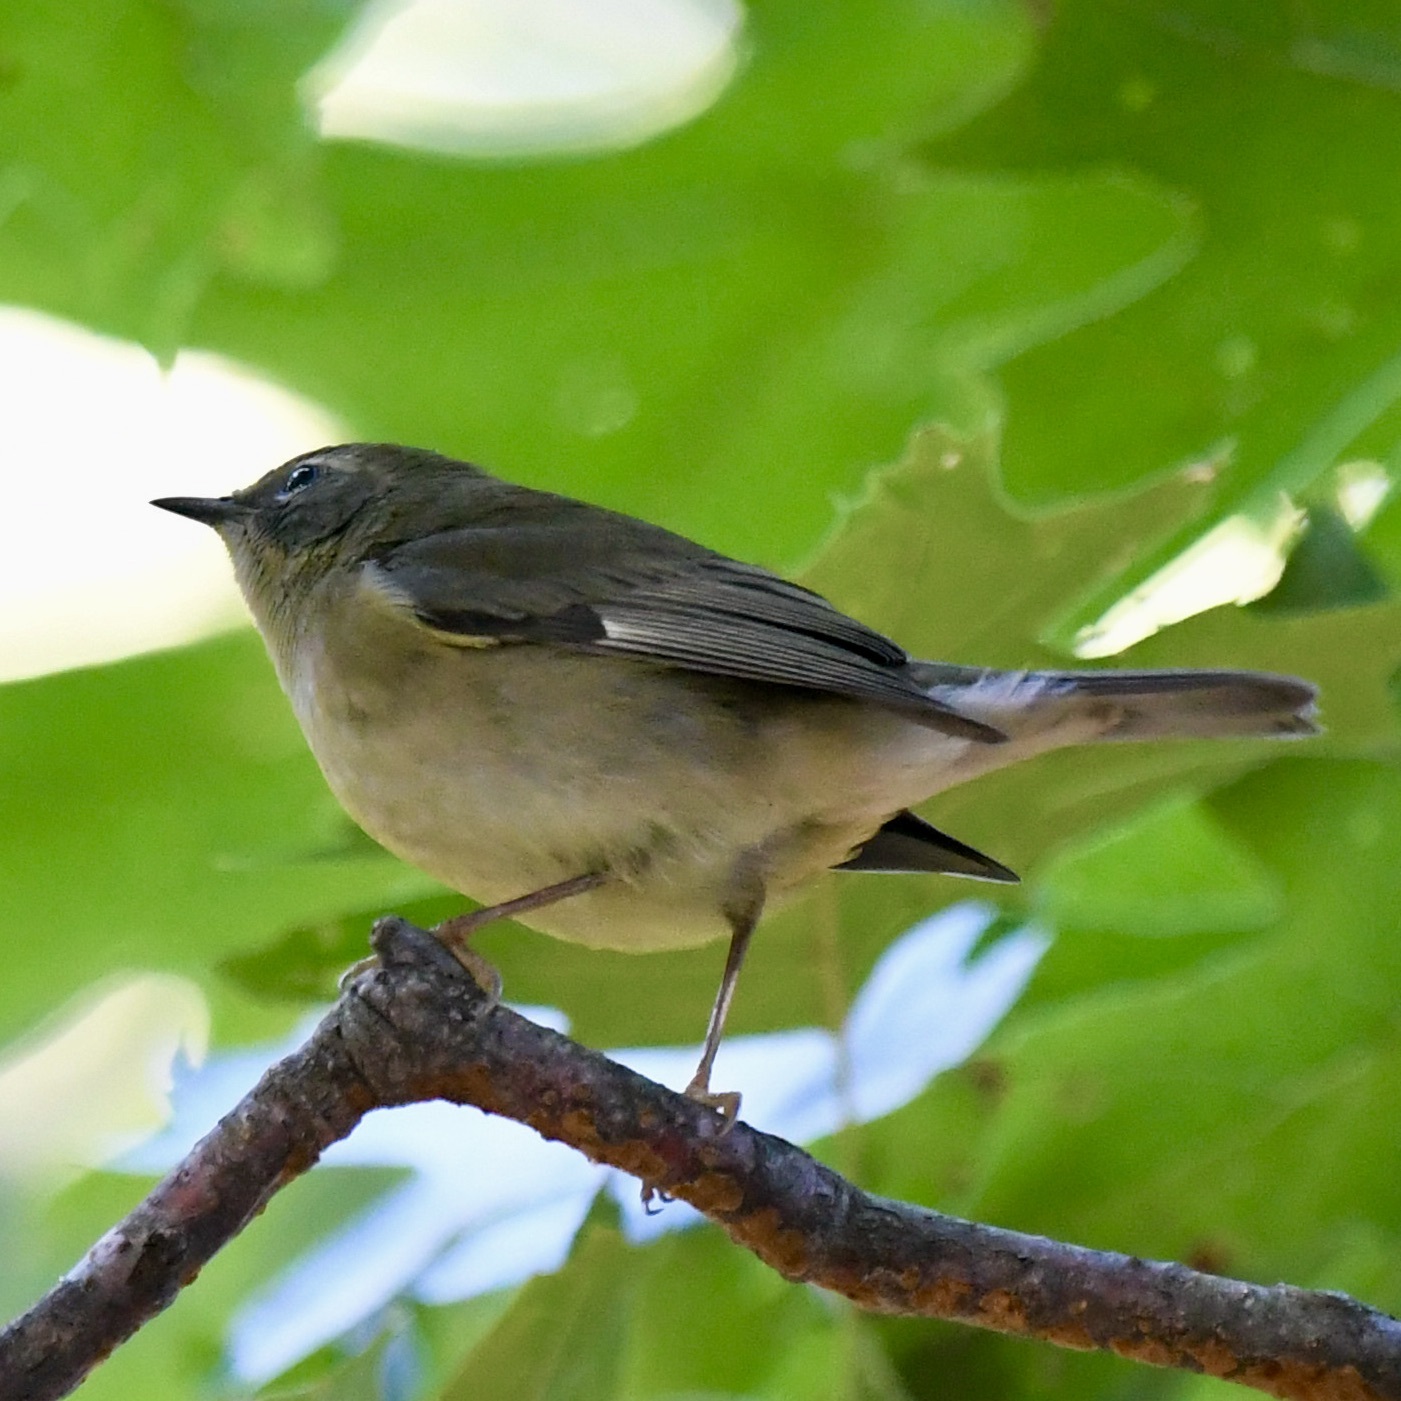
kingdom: Animalia
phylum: Chordata
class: Aves
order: Passeriformes
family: Parulidae
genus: Setophaga
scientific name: Setophaga caerulescens
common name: Black-throated blue warbler
